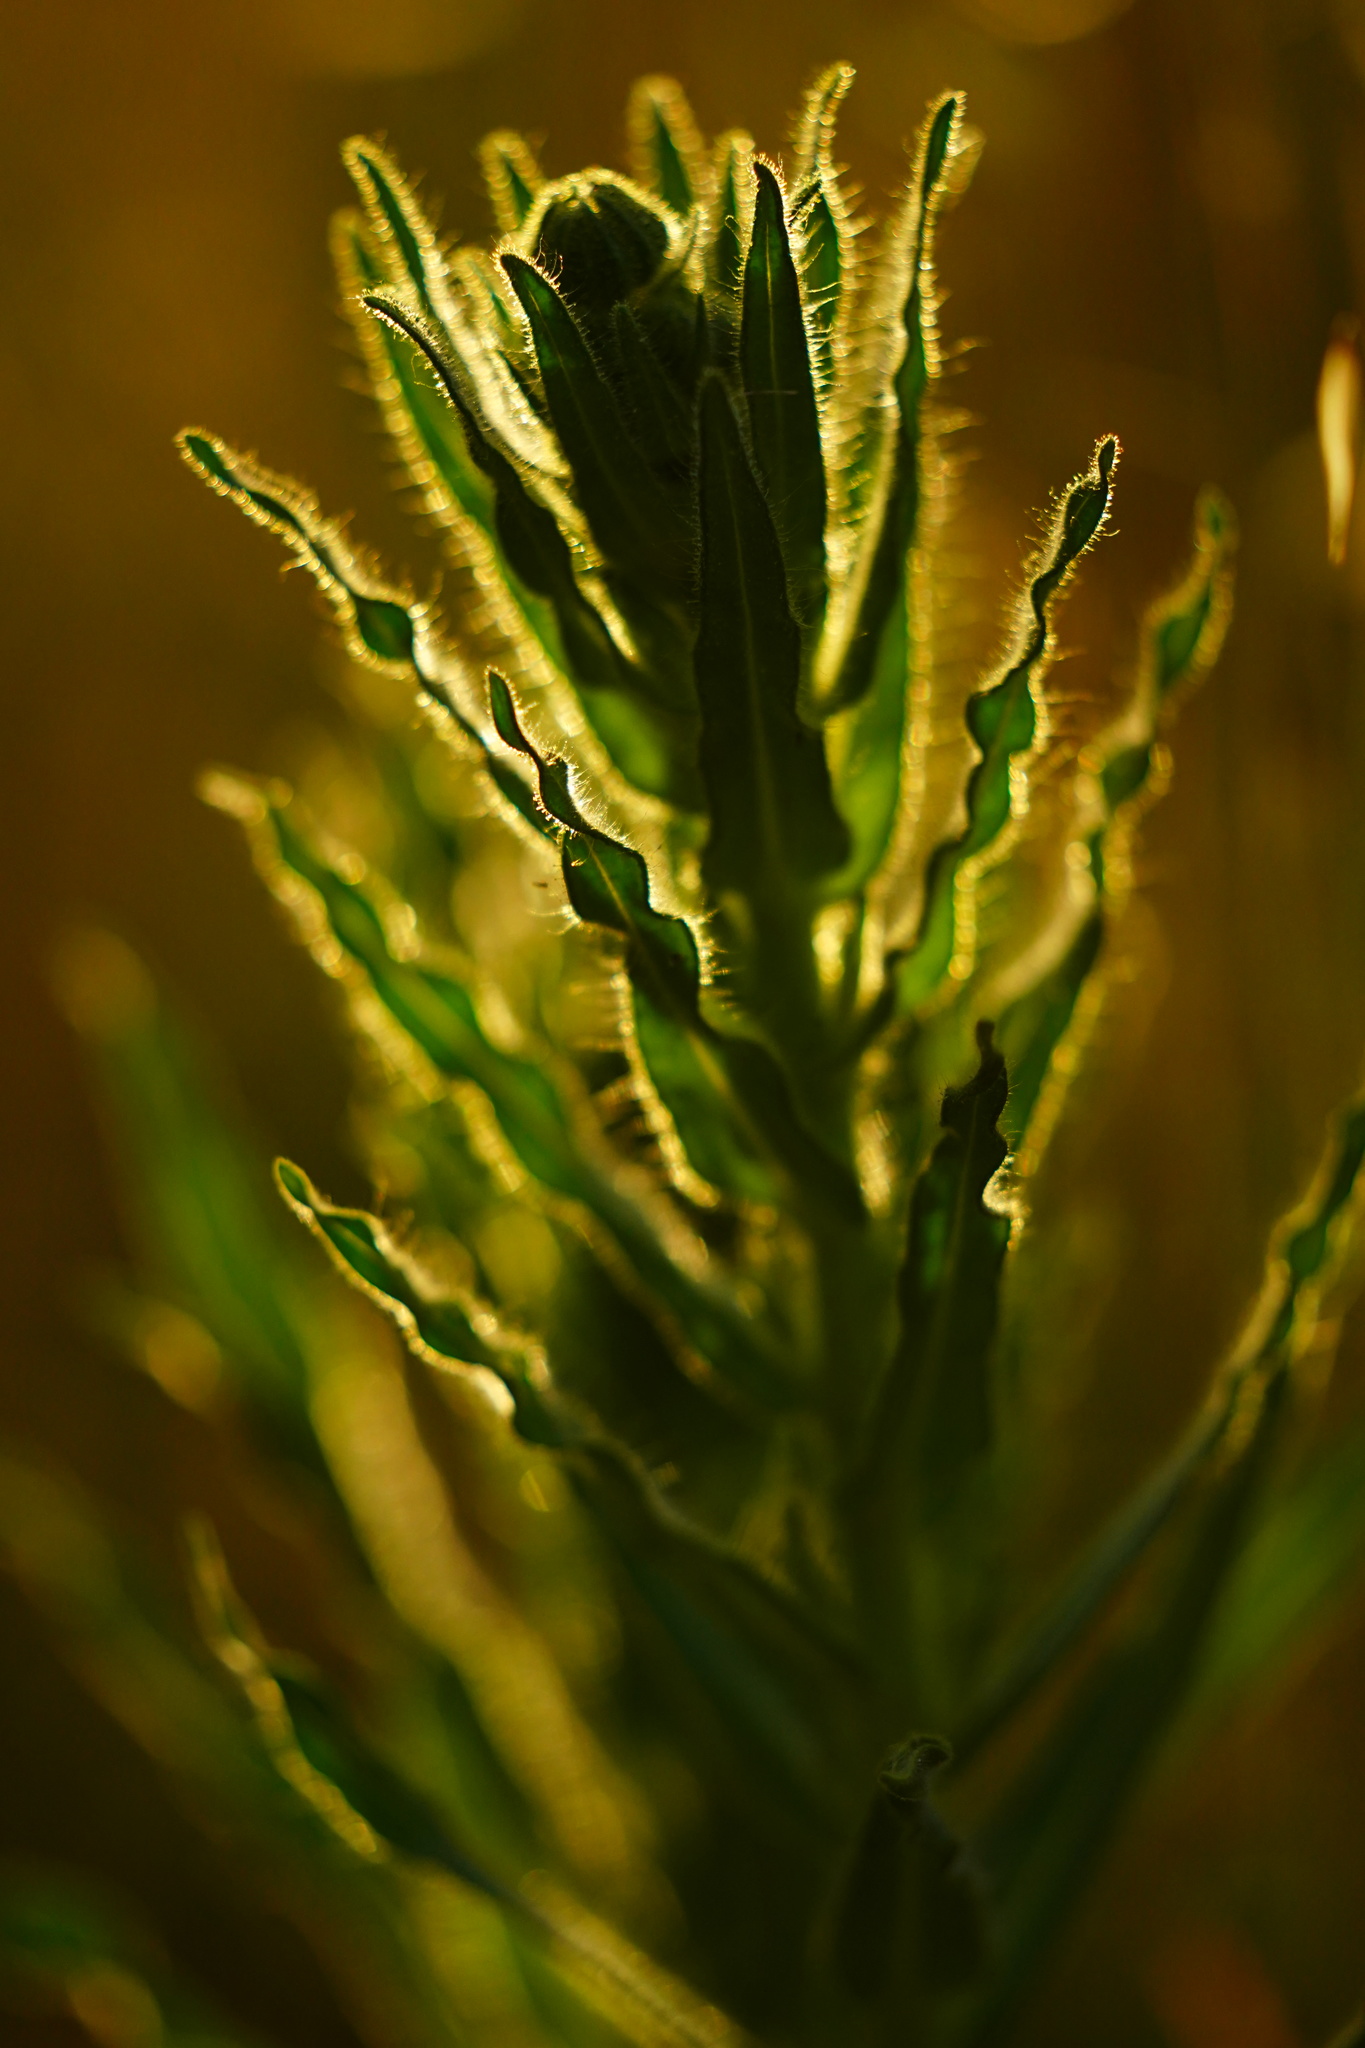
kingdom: Plantae
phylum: Tracheophyta
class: Magnoliopsida
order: Asterales
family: Asteraceae
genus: Madia
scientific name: Madia sativa
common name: Coast tarweed
